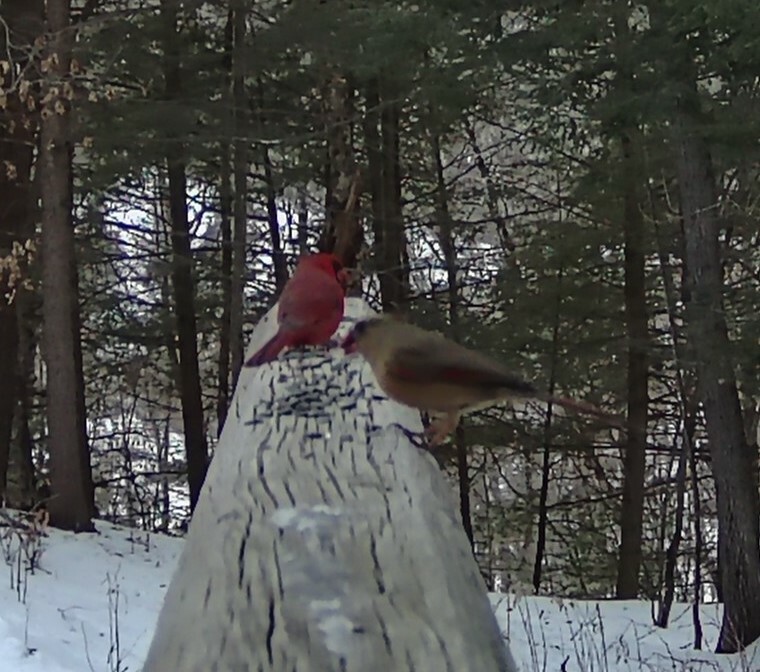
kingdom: Animalia
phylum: Chordata
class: Aves
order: Passeriformes
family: Cardinalidae
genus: Cardinalis
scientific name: Cardinalis cardinalis
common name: Northern cardinal
